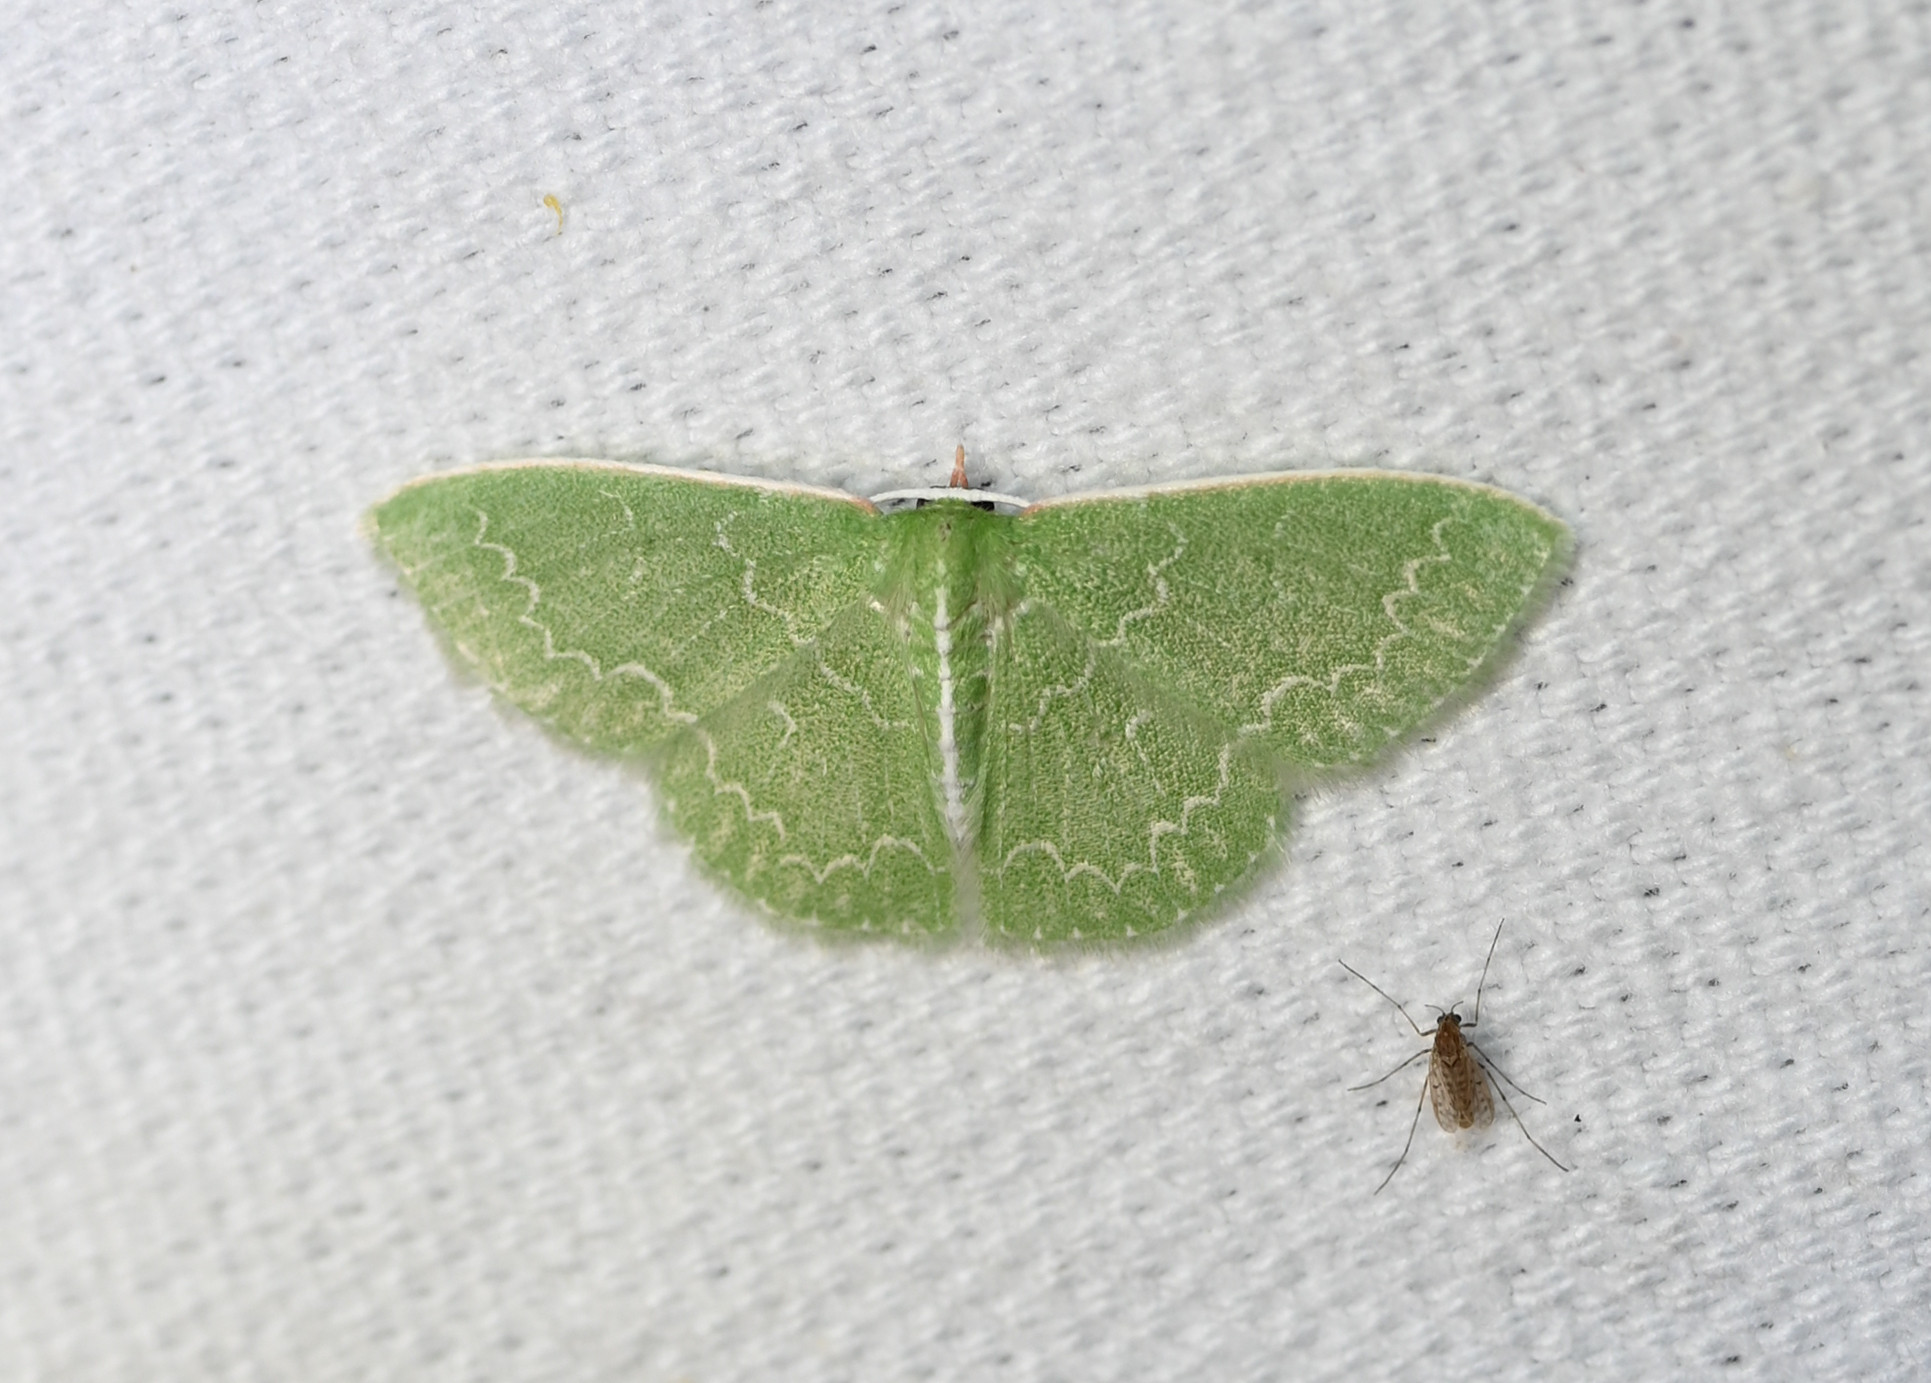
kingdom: Animalia
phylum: Arthropoda
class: Insecta
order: Lepidoptera
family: Geometridae
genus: Synchlora
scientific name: Synchlora frondaria
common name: Southern emerald
